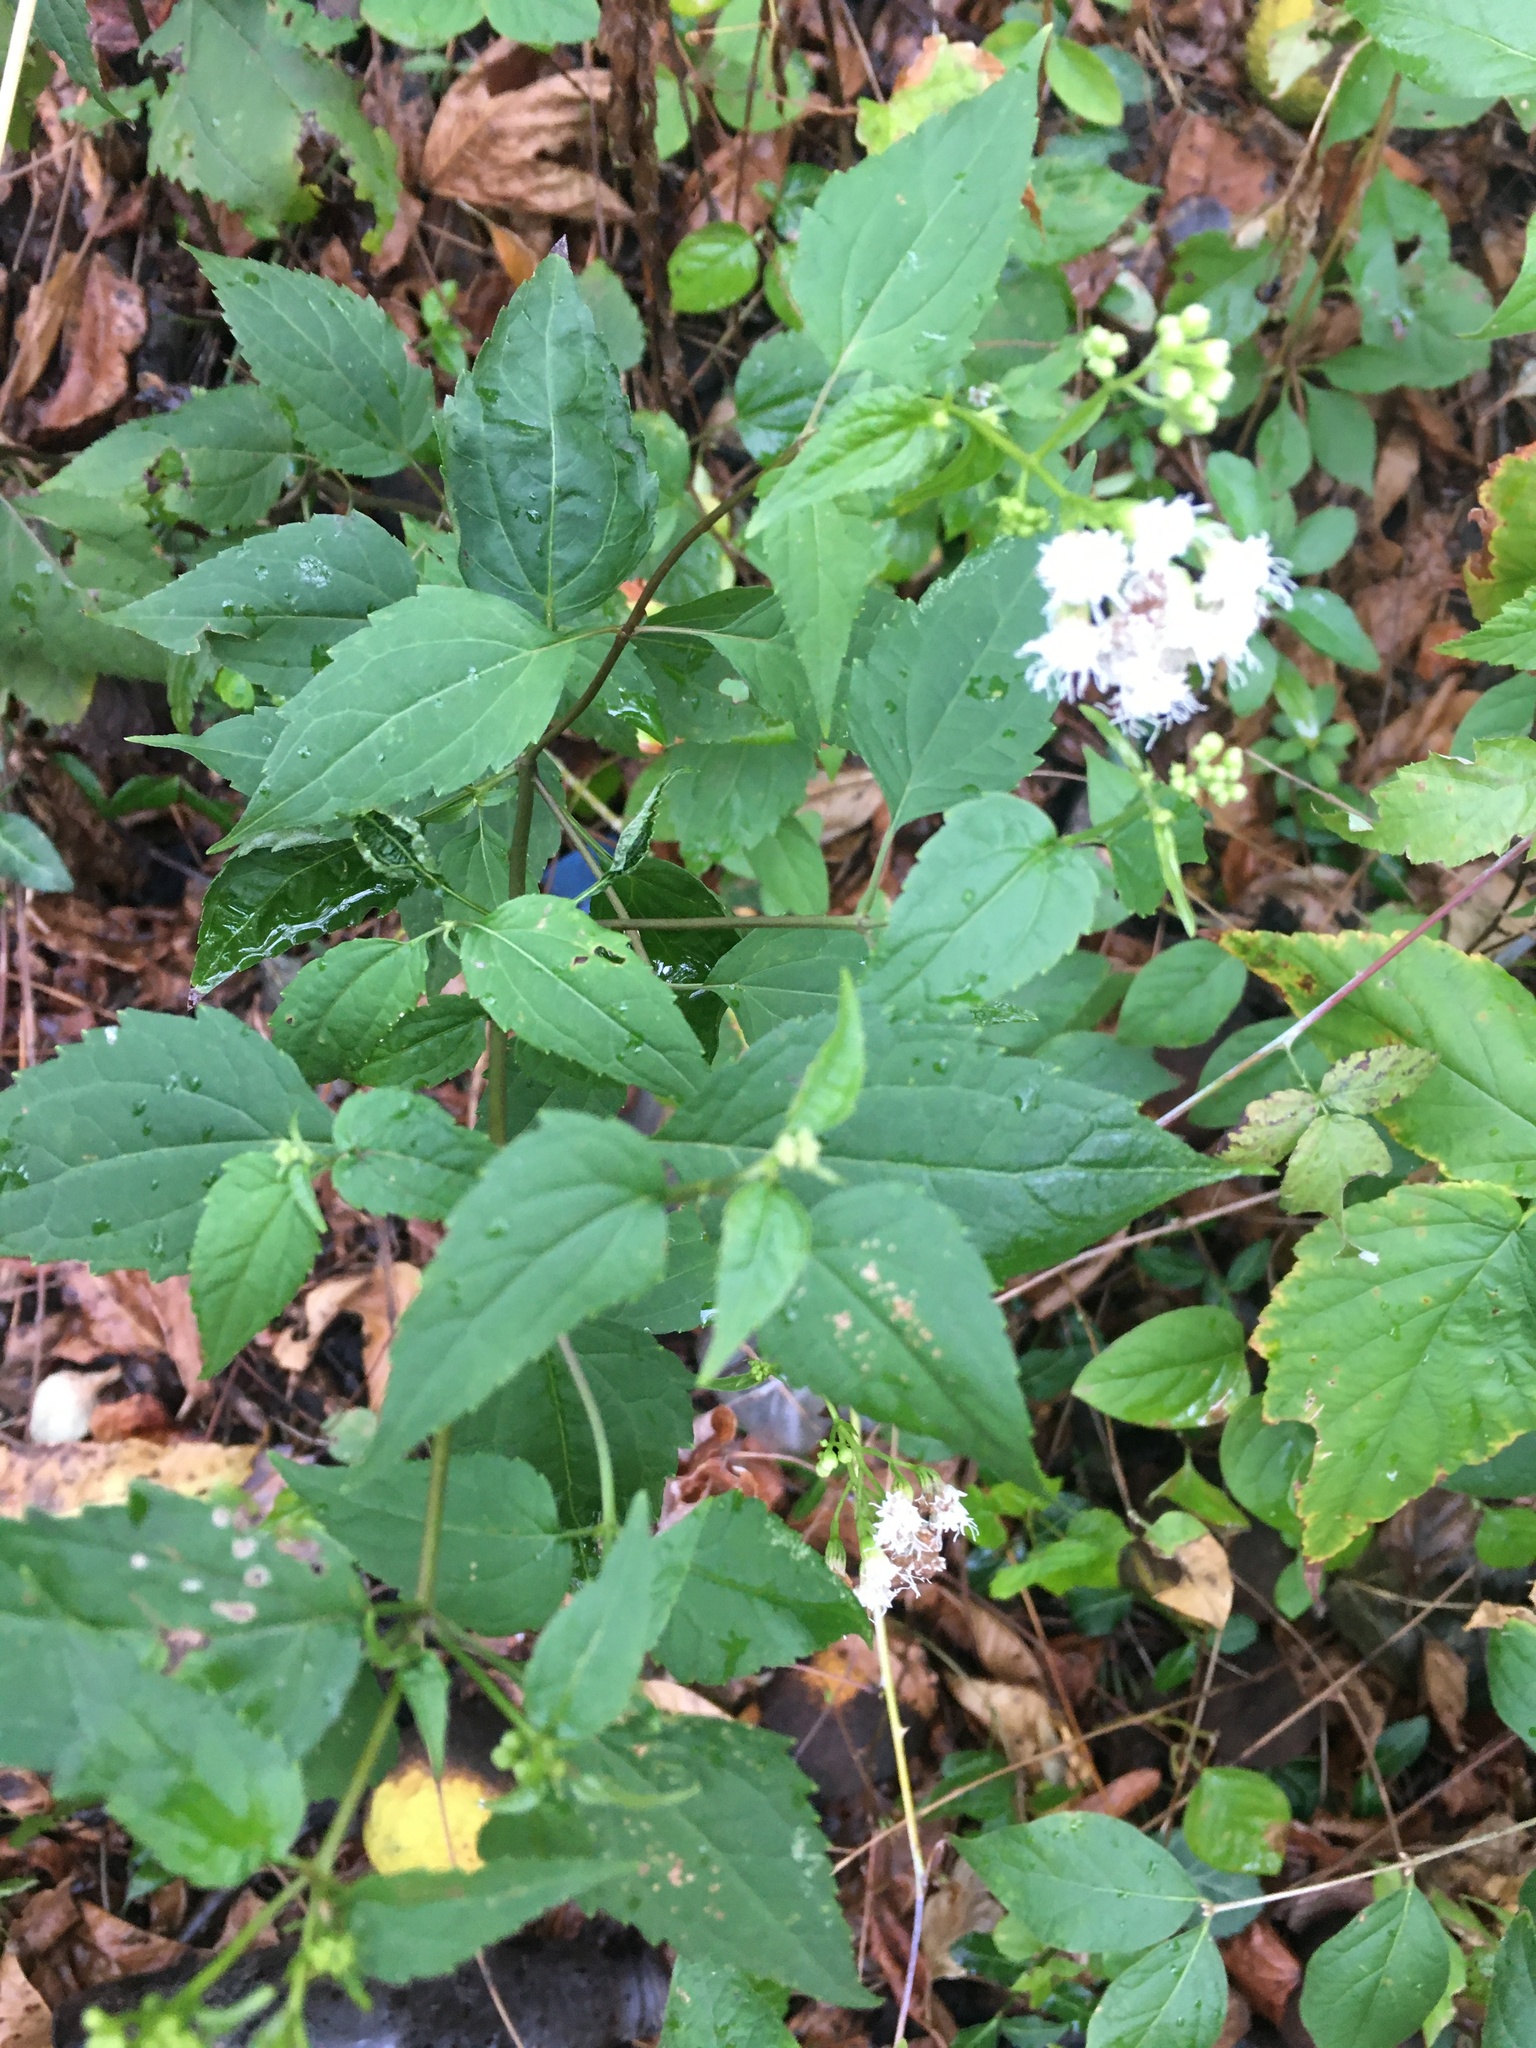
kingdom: Plantae
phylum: Tracheophyta
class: Magnoliopsida
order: Asterales
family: Asteraceae
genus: Ageratina
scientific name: Ageratina altissima
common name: White snakeroot
